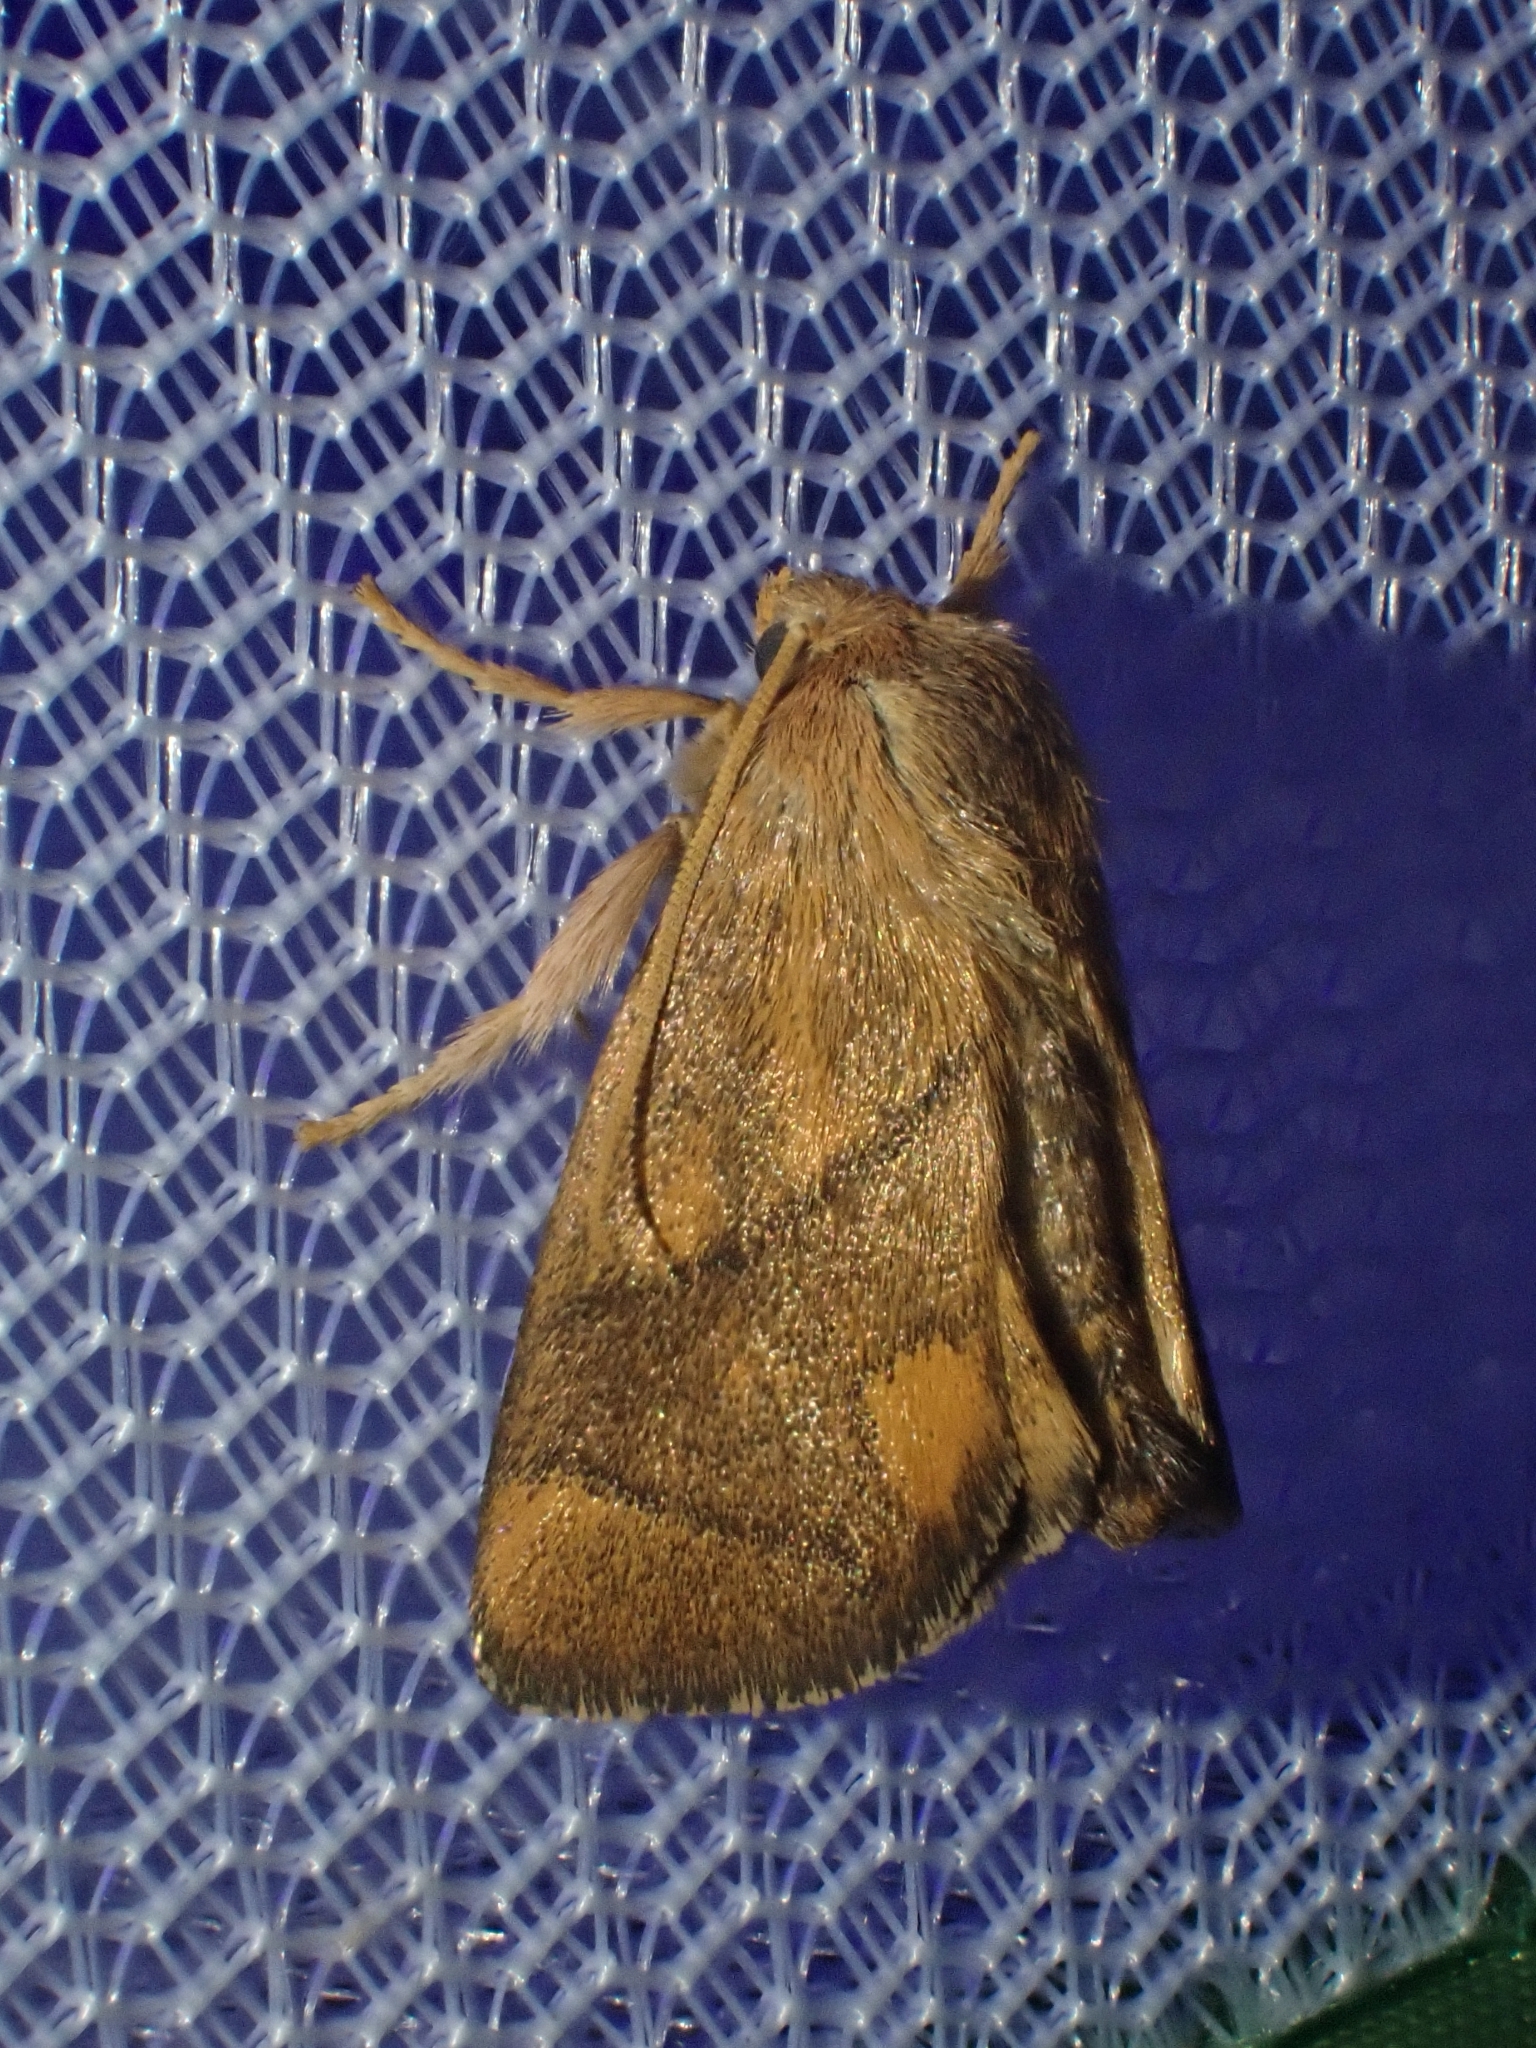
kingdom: Animalia
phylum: Arthropoda
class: Insecta
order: Lepidoptera
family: Limacodidae
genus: Apoda
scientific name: Apoda limacodes
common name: Festoon
